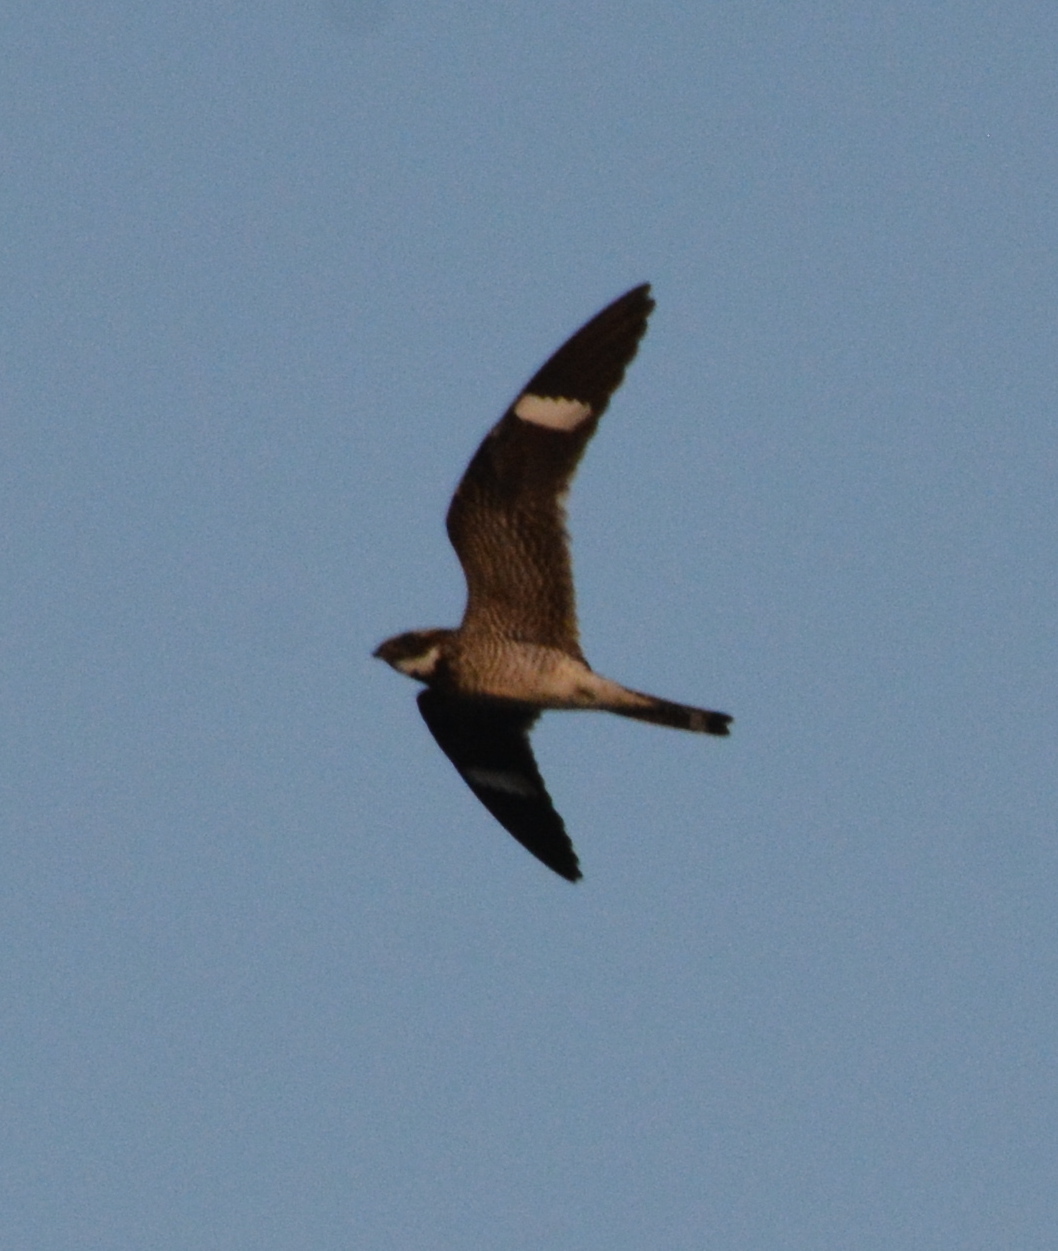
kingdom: Animalia
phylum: Chordata
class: Aves
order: Caprimulgiformes
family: Caprimulgidae
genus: Chordeiles
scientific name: Chordeiles minor
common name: Common nighthawk
